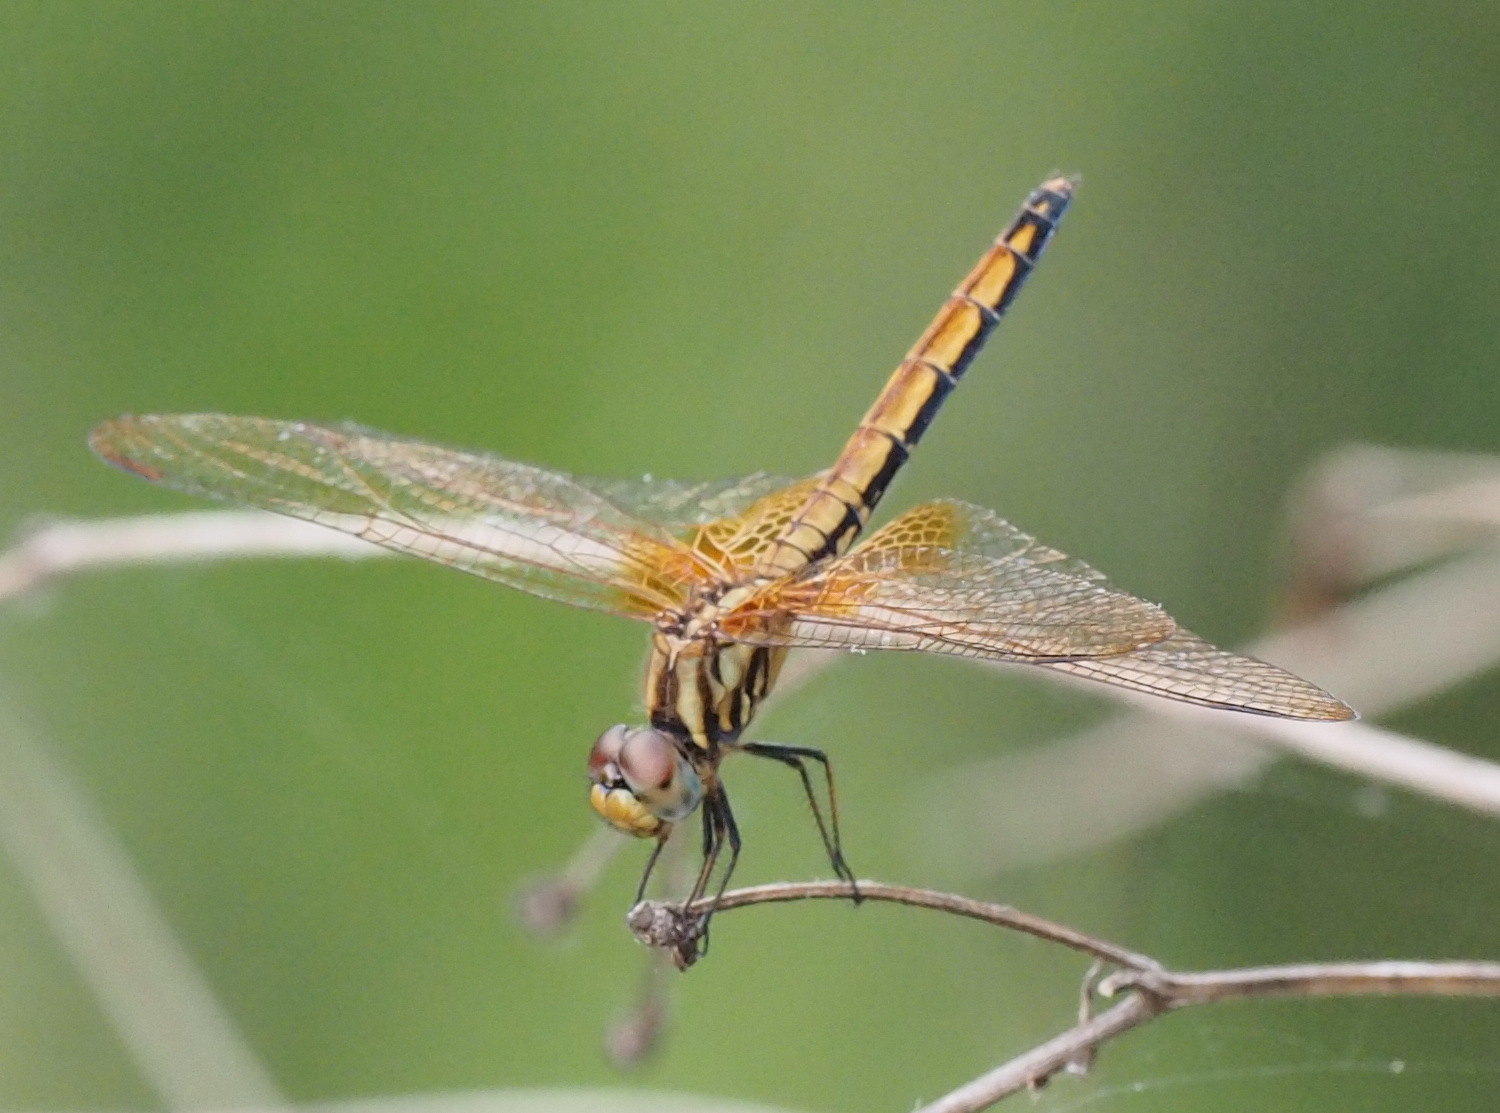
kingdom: Animalia
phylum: Arthropoda
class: Insecta
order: Odonata
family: Libellulidae
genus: Trithemis
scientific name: Trithemis aurora
